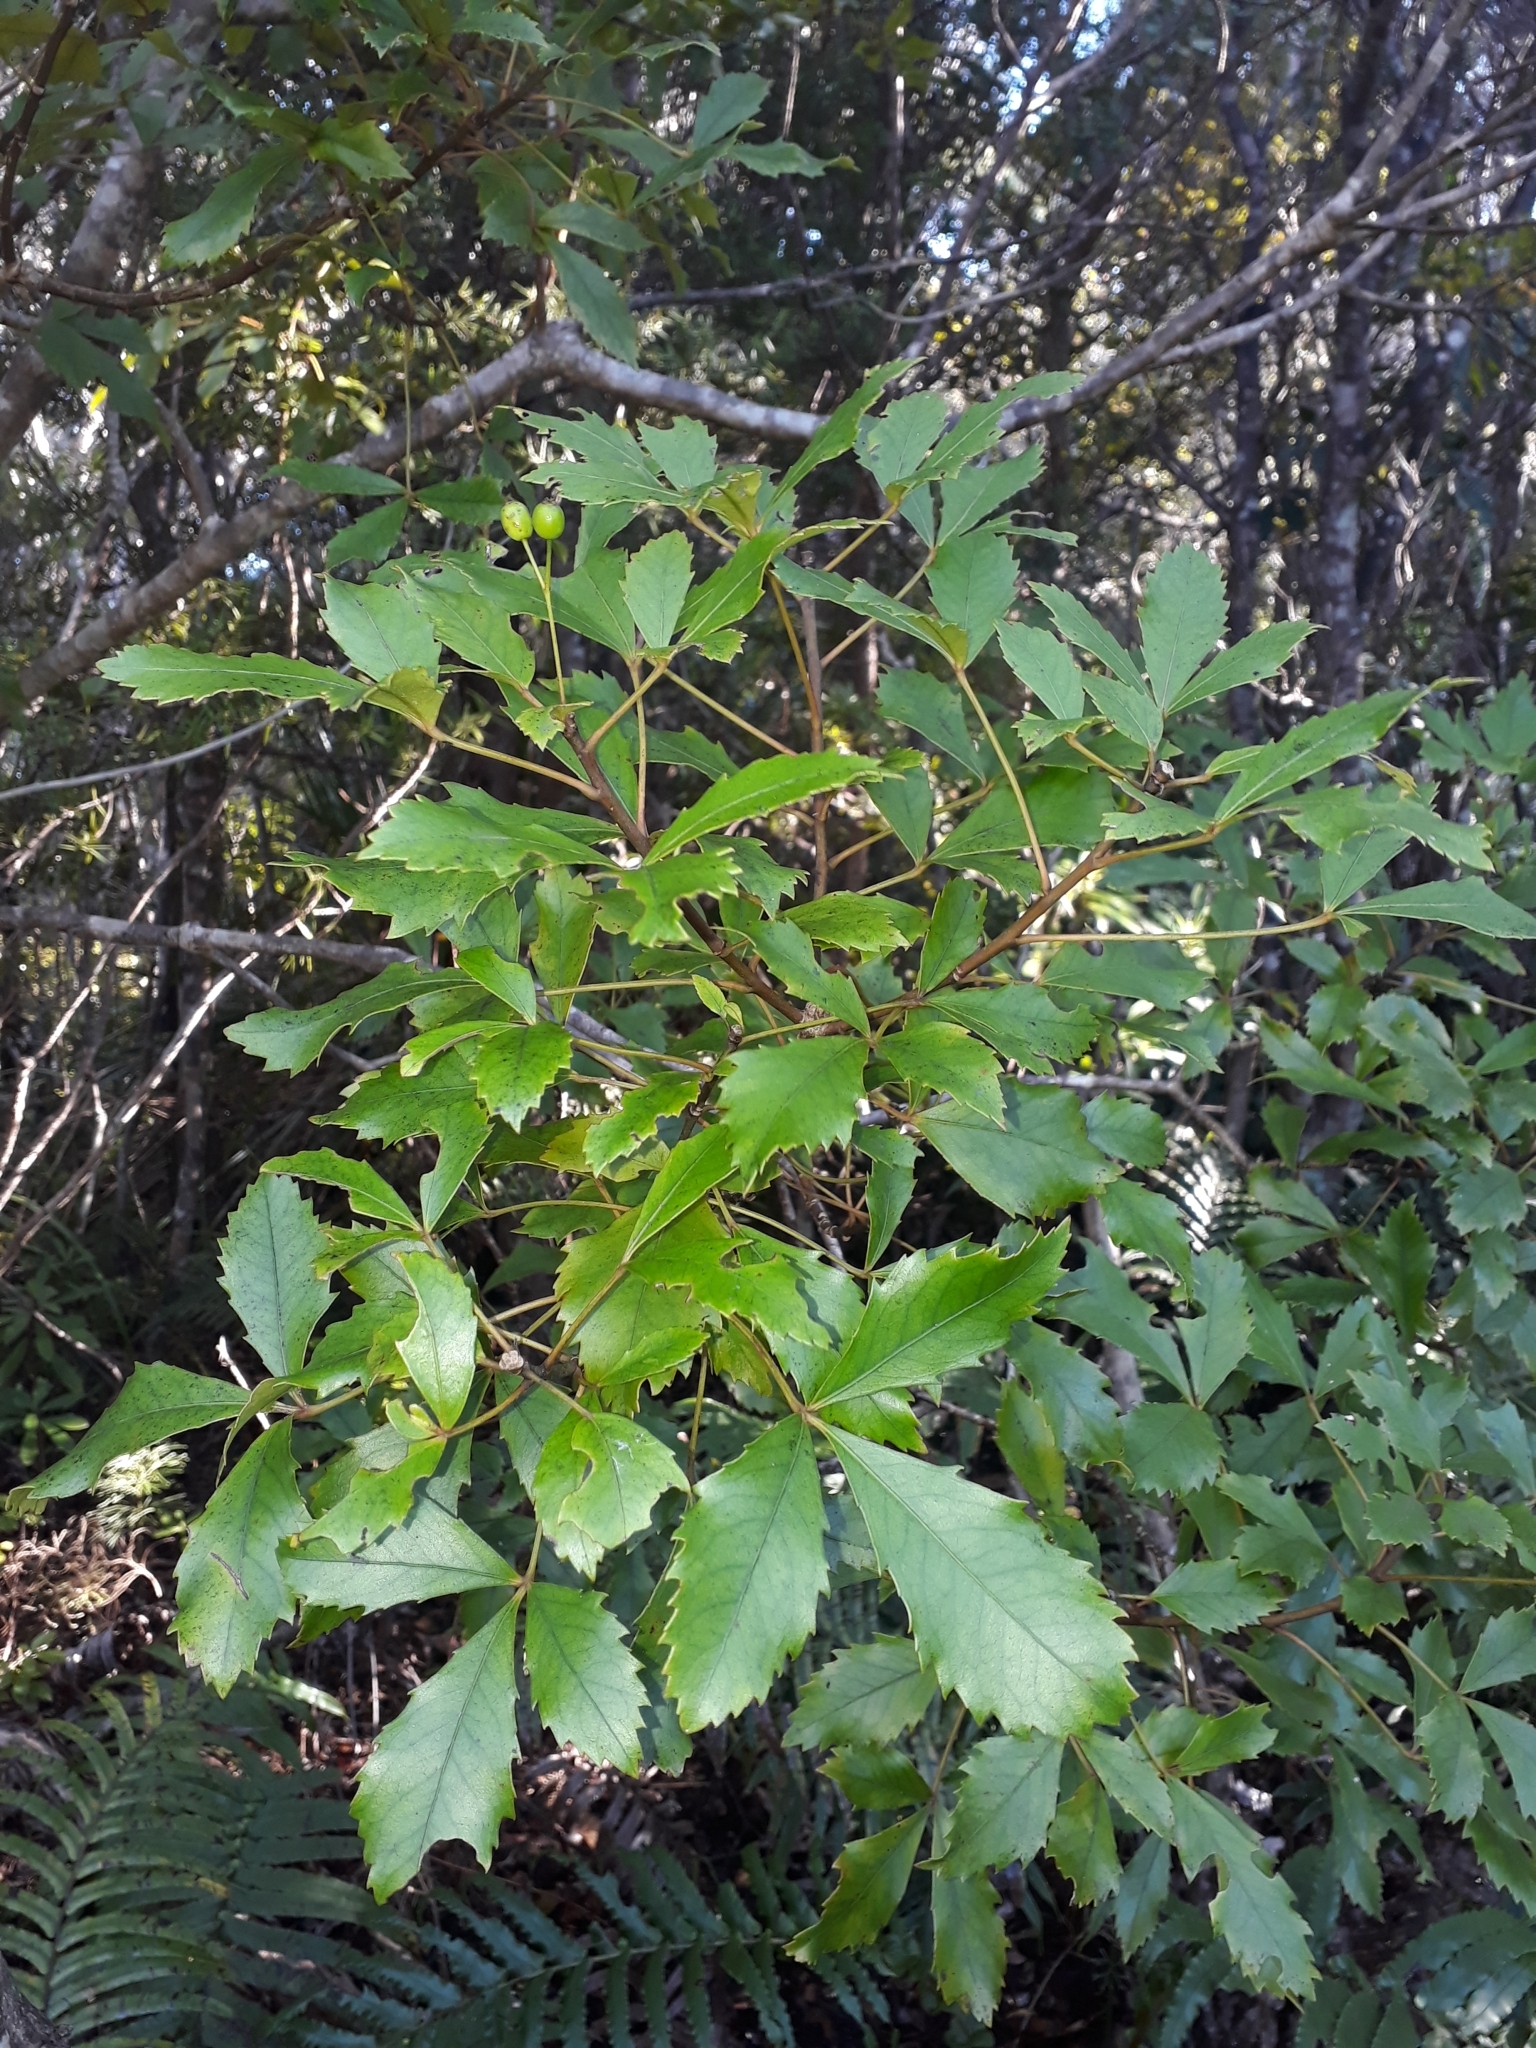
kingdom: Plantae
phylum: Tracheophyta
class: Magnoliopsida
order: Apiales
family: Araliaceae
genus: Pseudopanax
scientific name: Pseudopanax discolor
